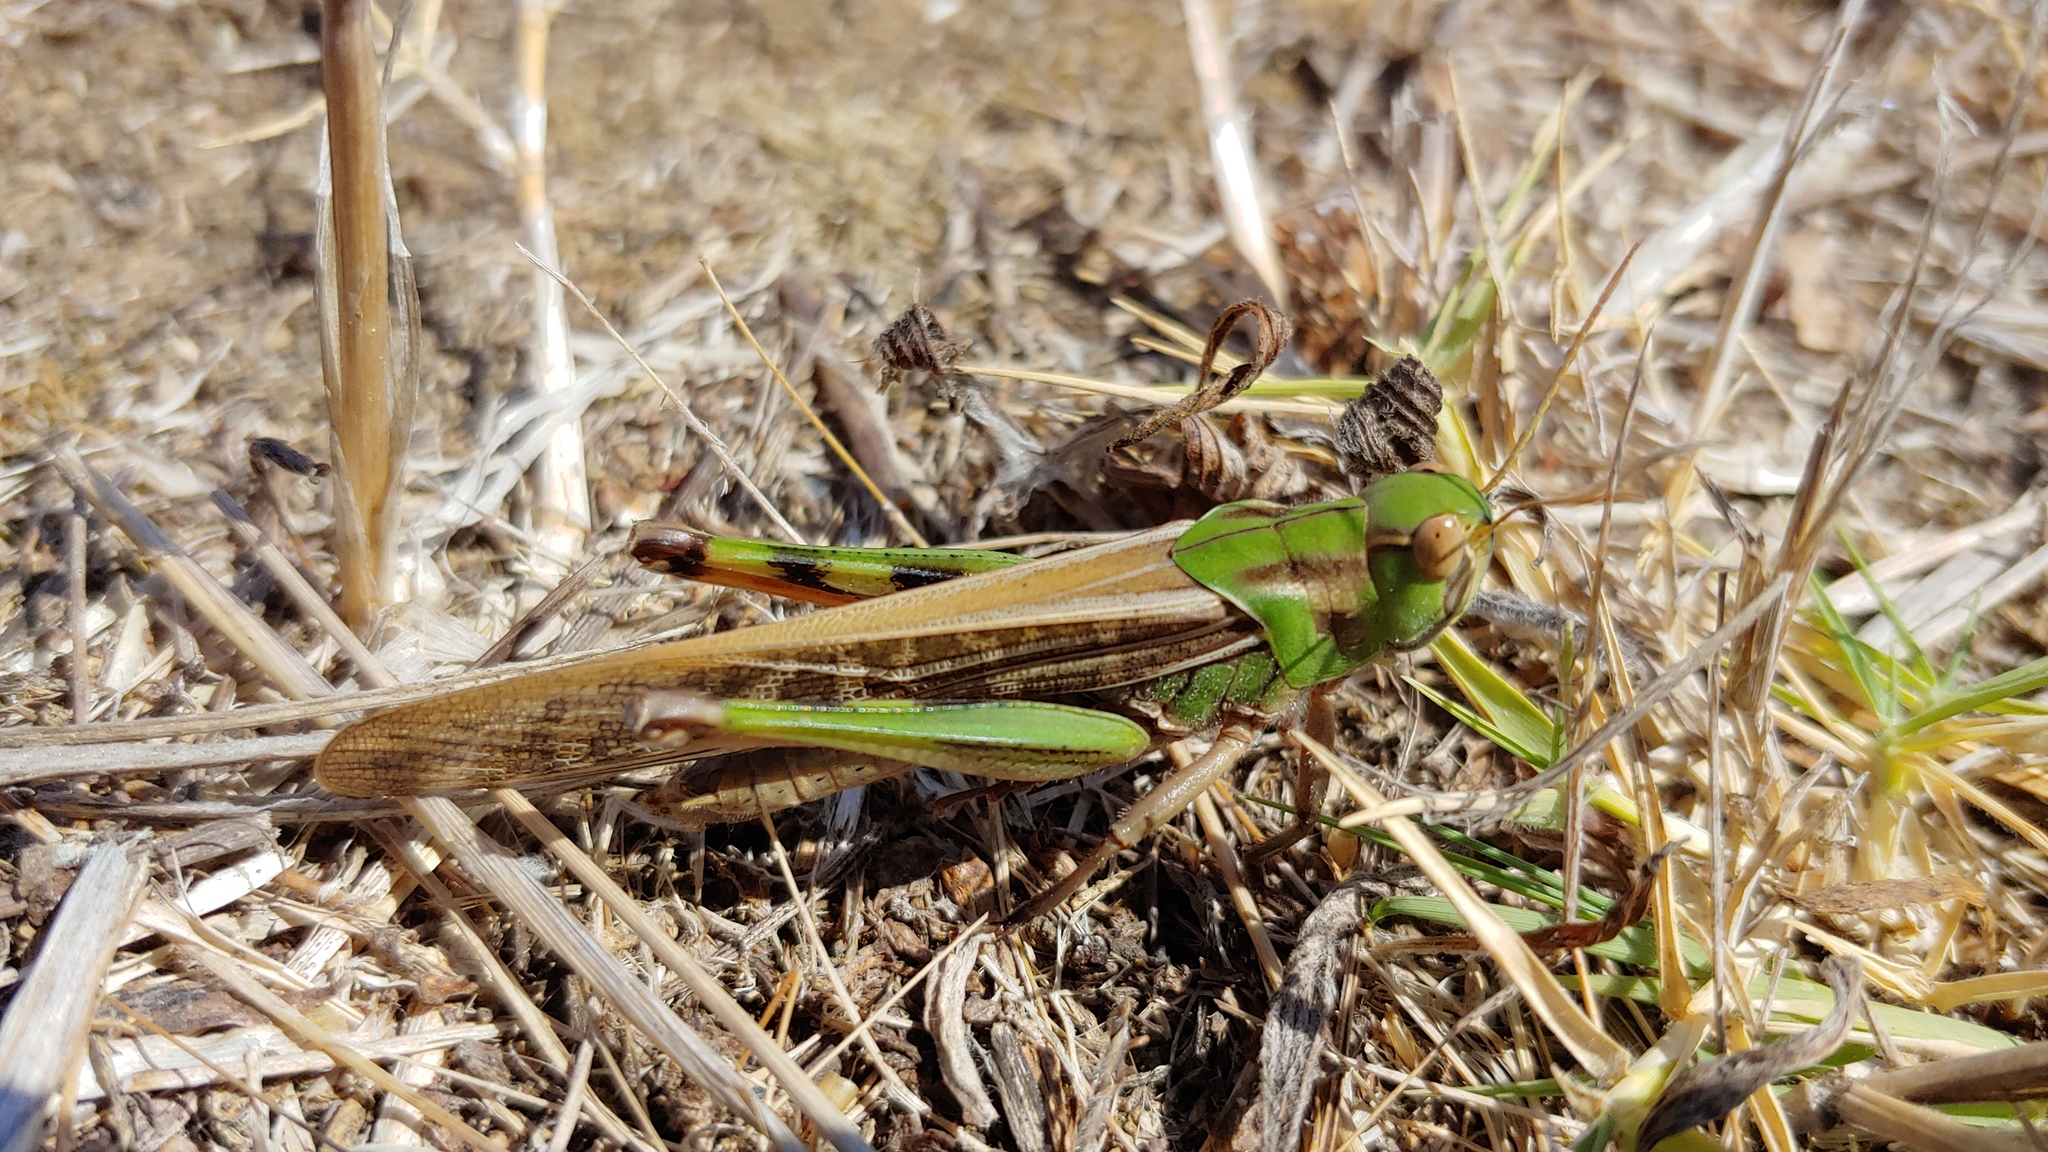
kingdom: Animalia
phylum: Arthropoda
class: Insecta
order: Orthoptera
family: Acrididae
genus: Locusta
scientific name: Locusta migratoria
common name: Migratory locust
